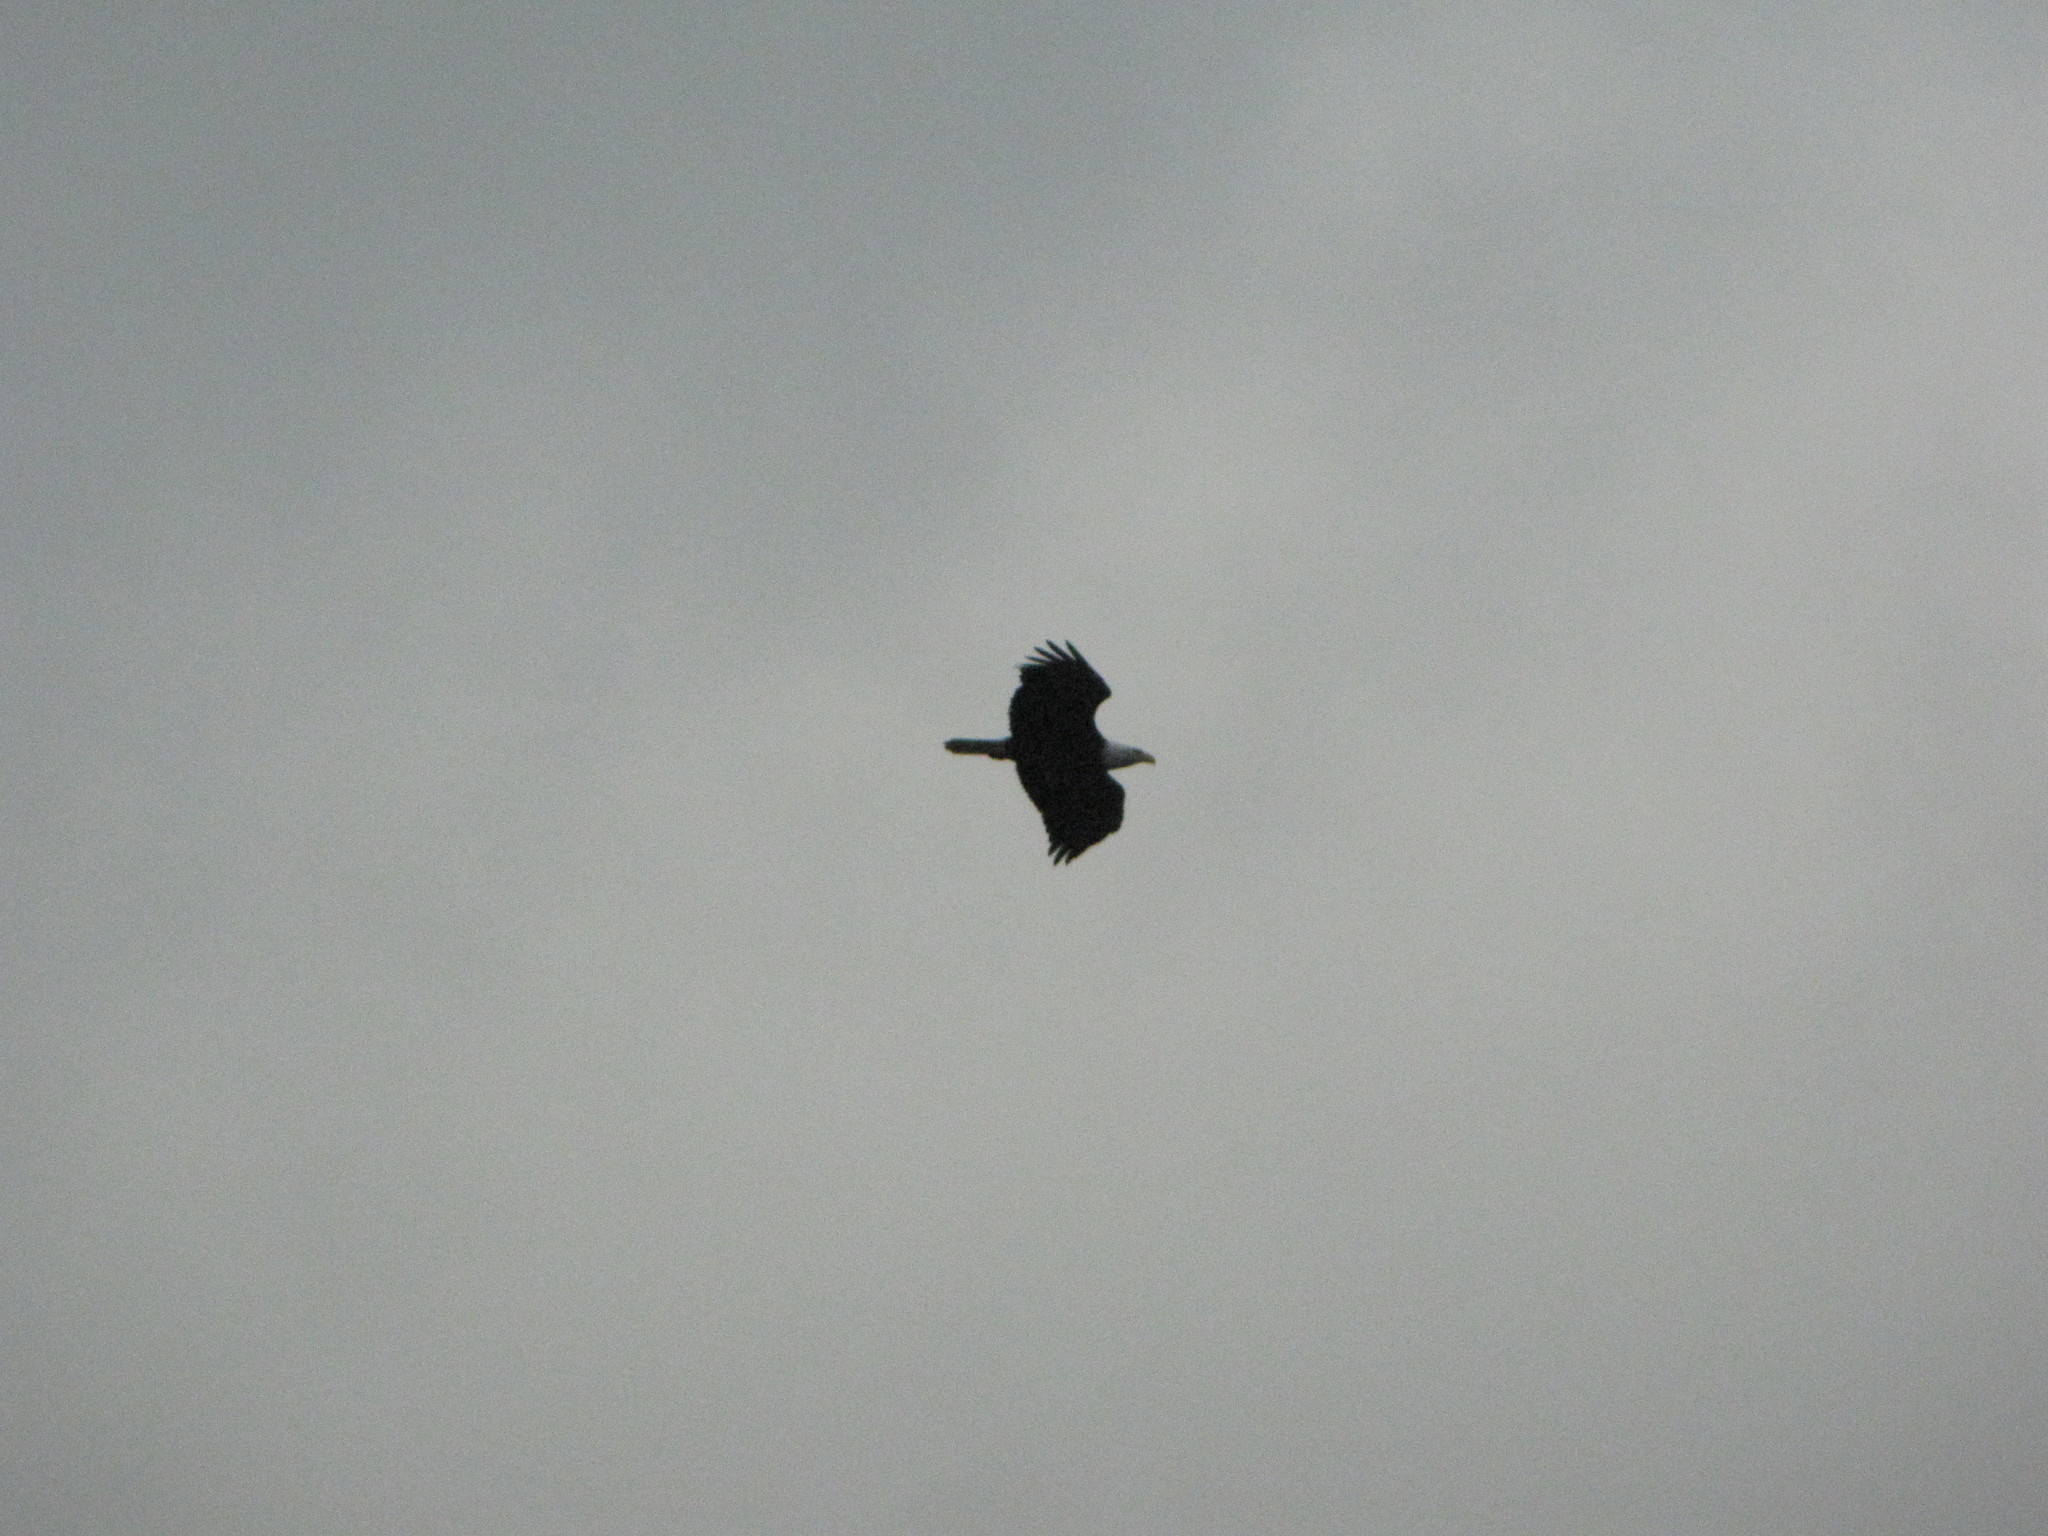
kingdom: Animalia
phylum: Chordata
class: Aves
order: Accipitriformes
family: Accipitridae
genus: Haliaeetus
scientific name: Haliaeetus leucocephalus
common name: Bald eagle
